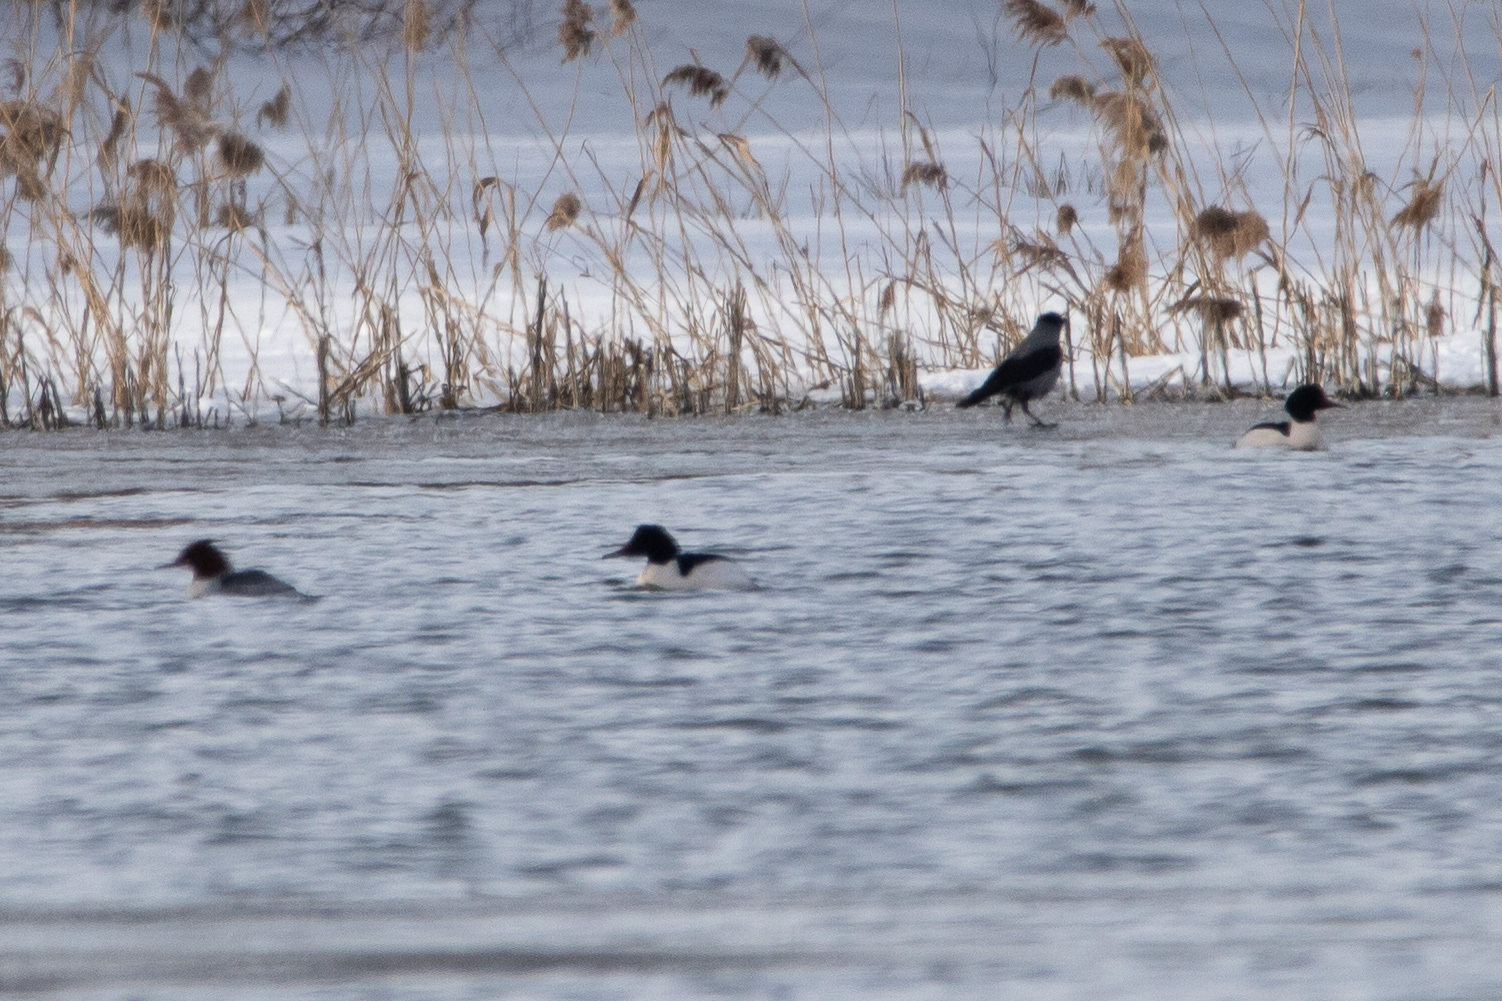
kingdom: Animalia
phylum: Chordata
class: Aves
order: Anseriformes
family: Anatidae
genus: Mergus
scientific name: Mergus merganser
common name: Common merganser
